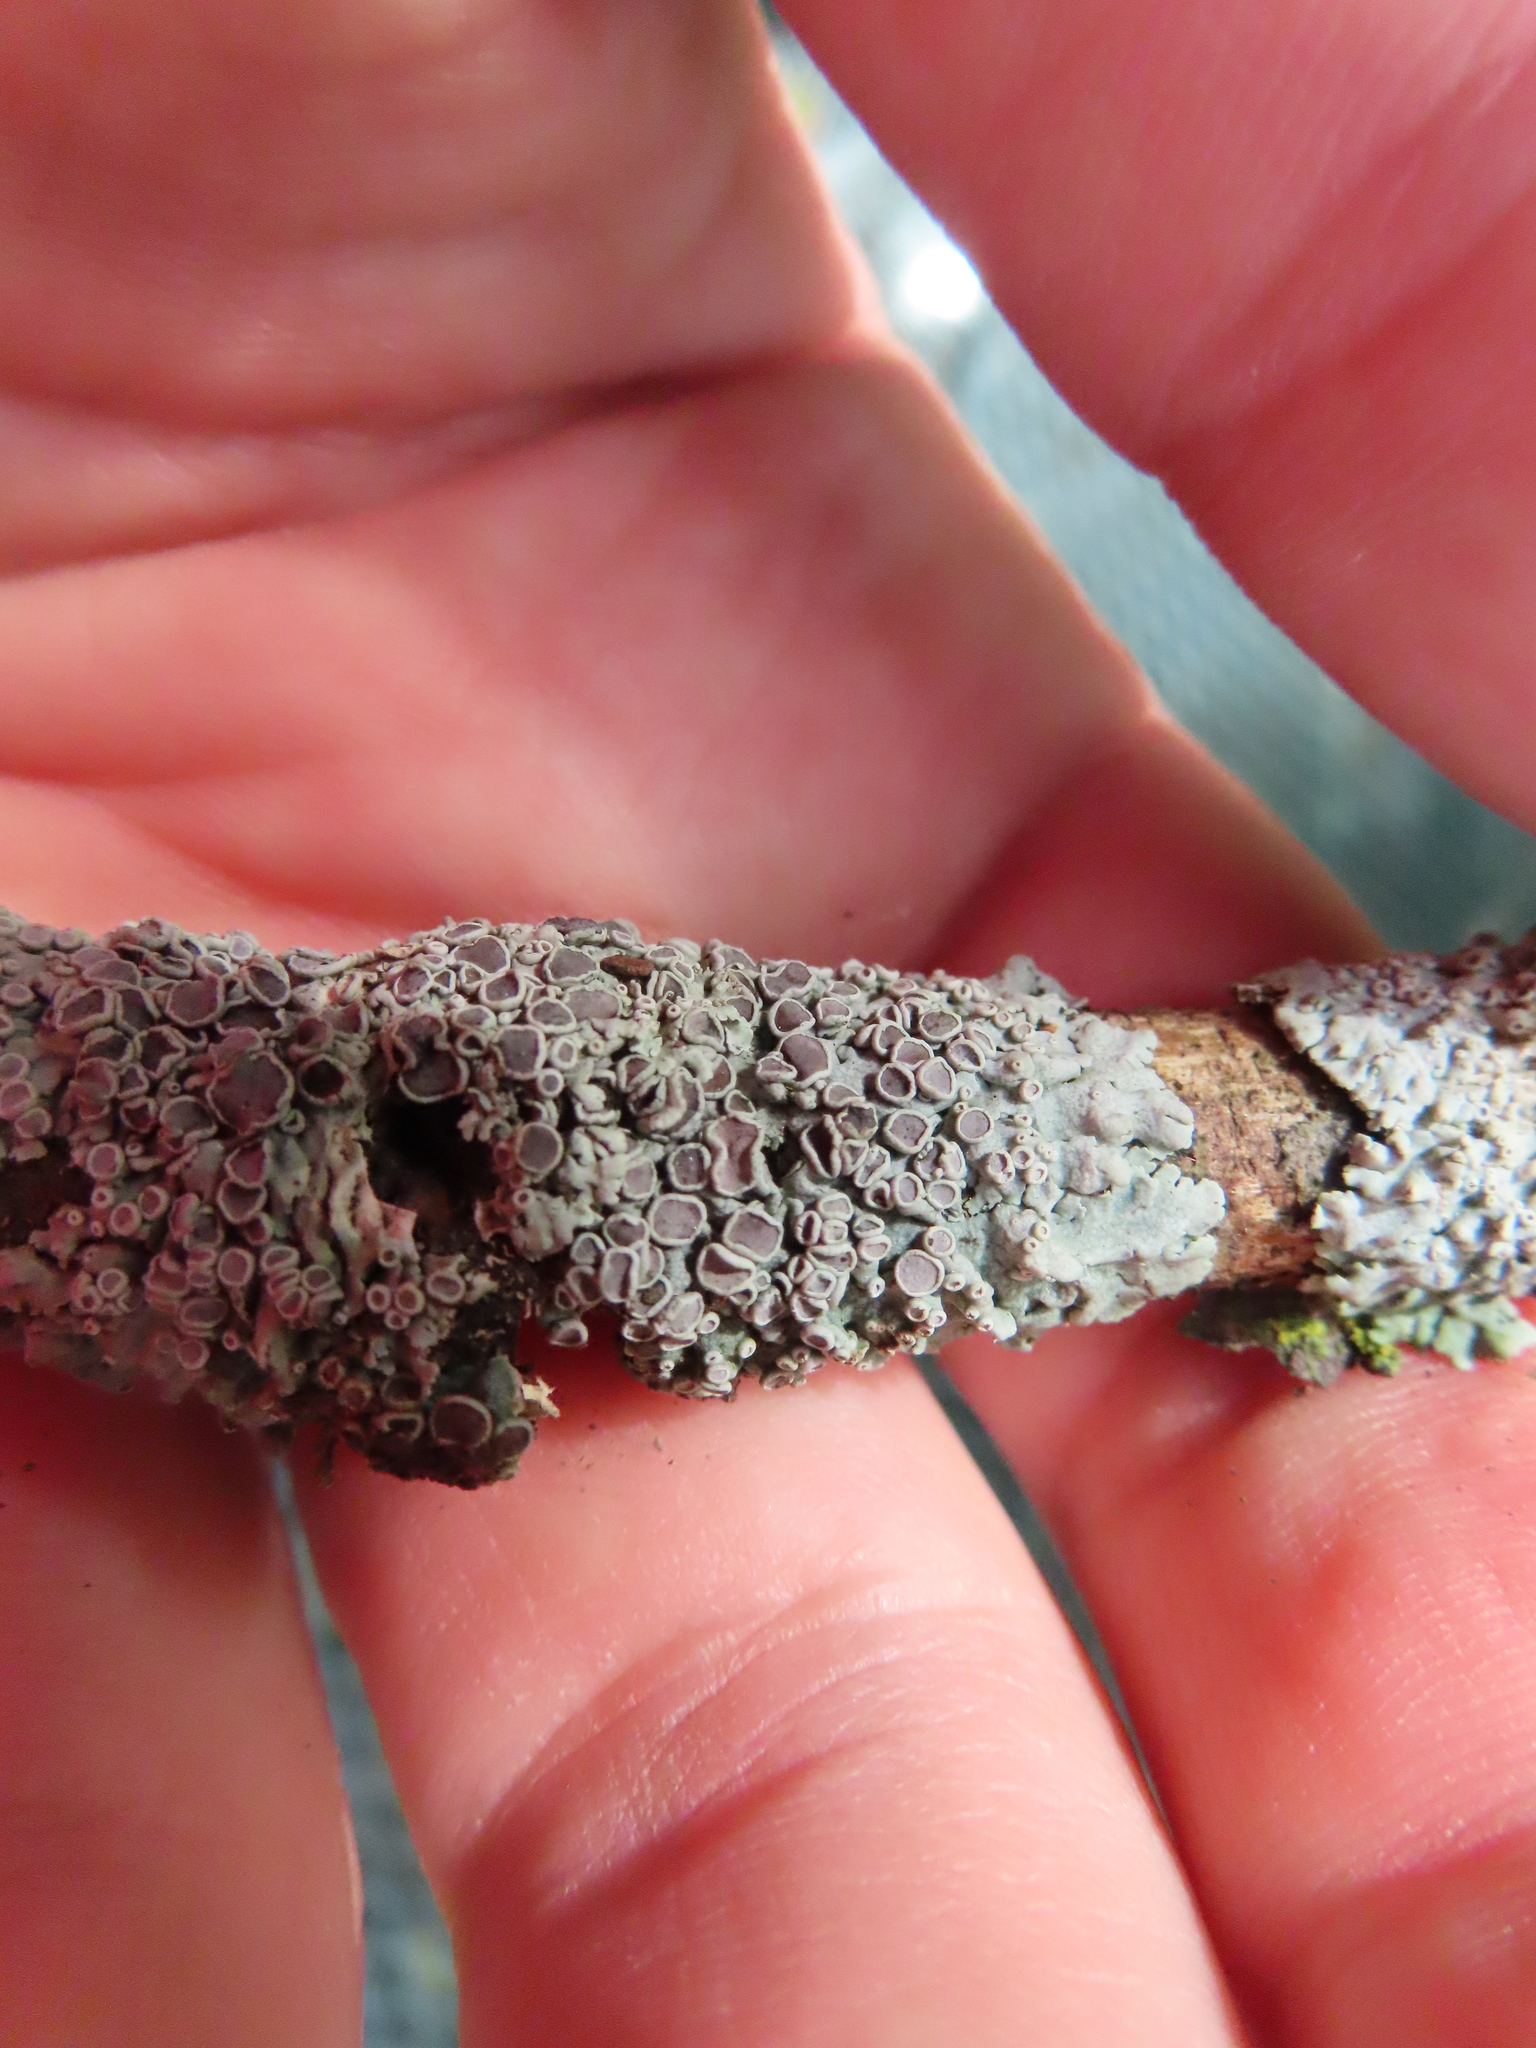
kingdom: Fungi
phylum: Ascomycota
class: Lecanoromycetes
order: Caliciales
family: Physciaceae
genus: Physcia
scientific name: Physcia
